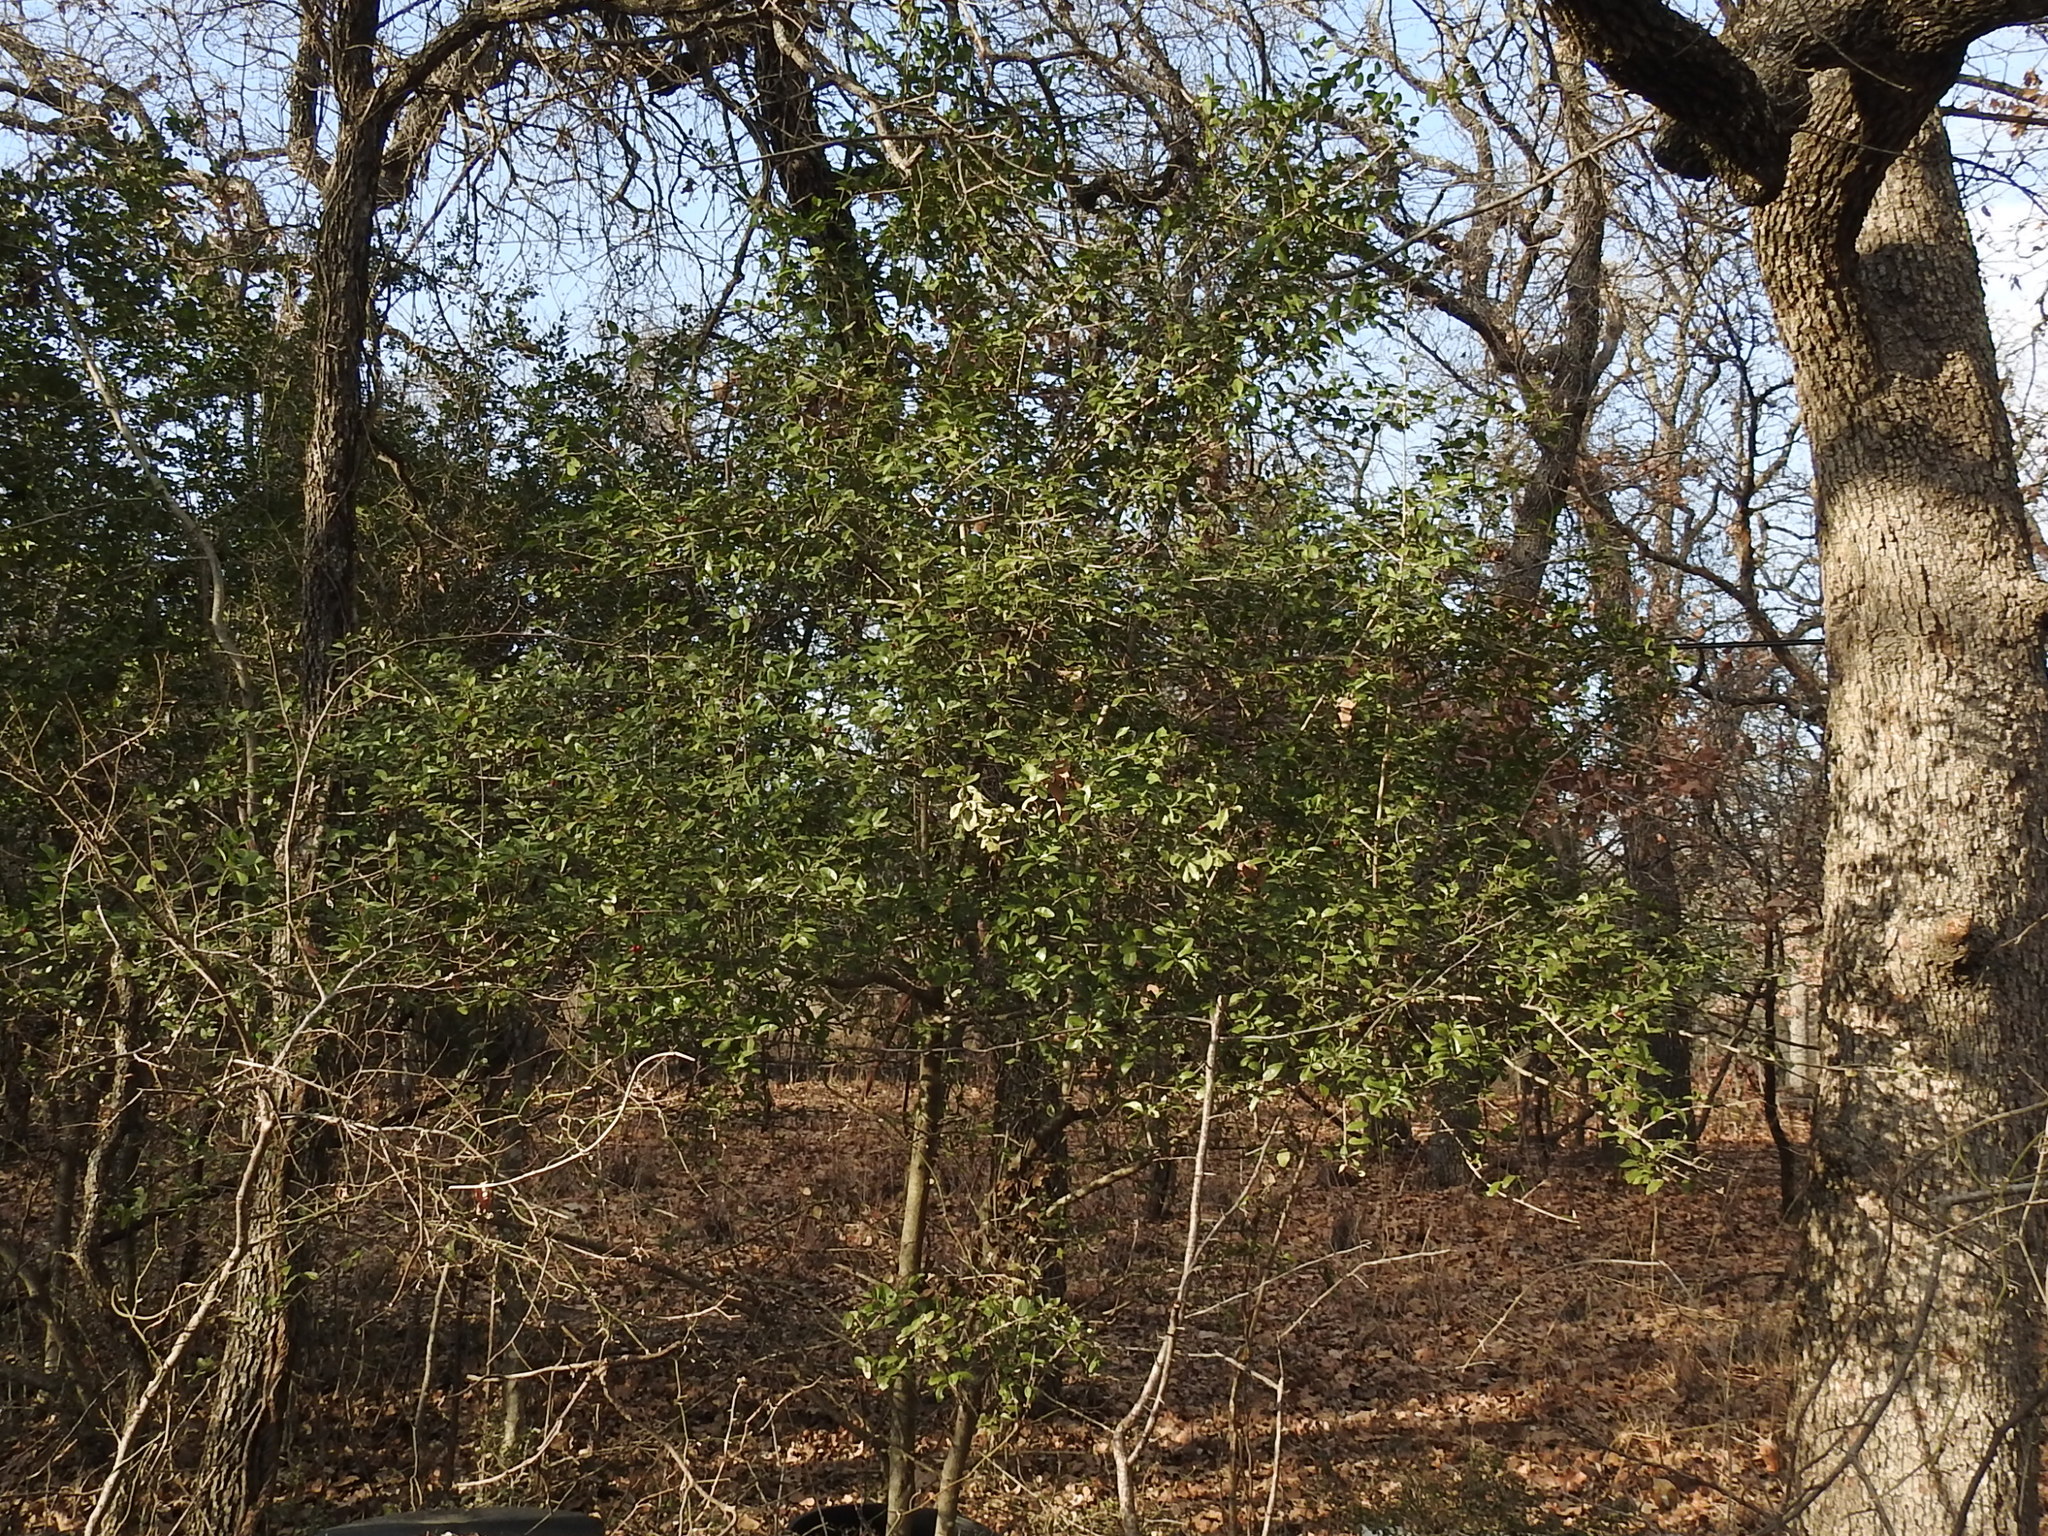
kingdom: Plantae
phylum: Tracheophyta
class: Magnoliopsida
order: Aquifoliales
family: Aquifoliaceae
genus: Ilex
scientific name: Ilex vomitoria
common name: Yaupon holly
